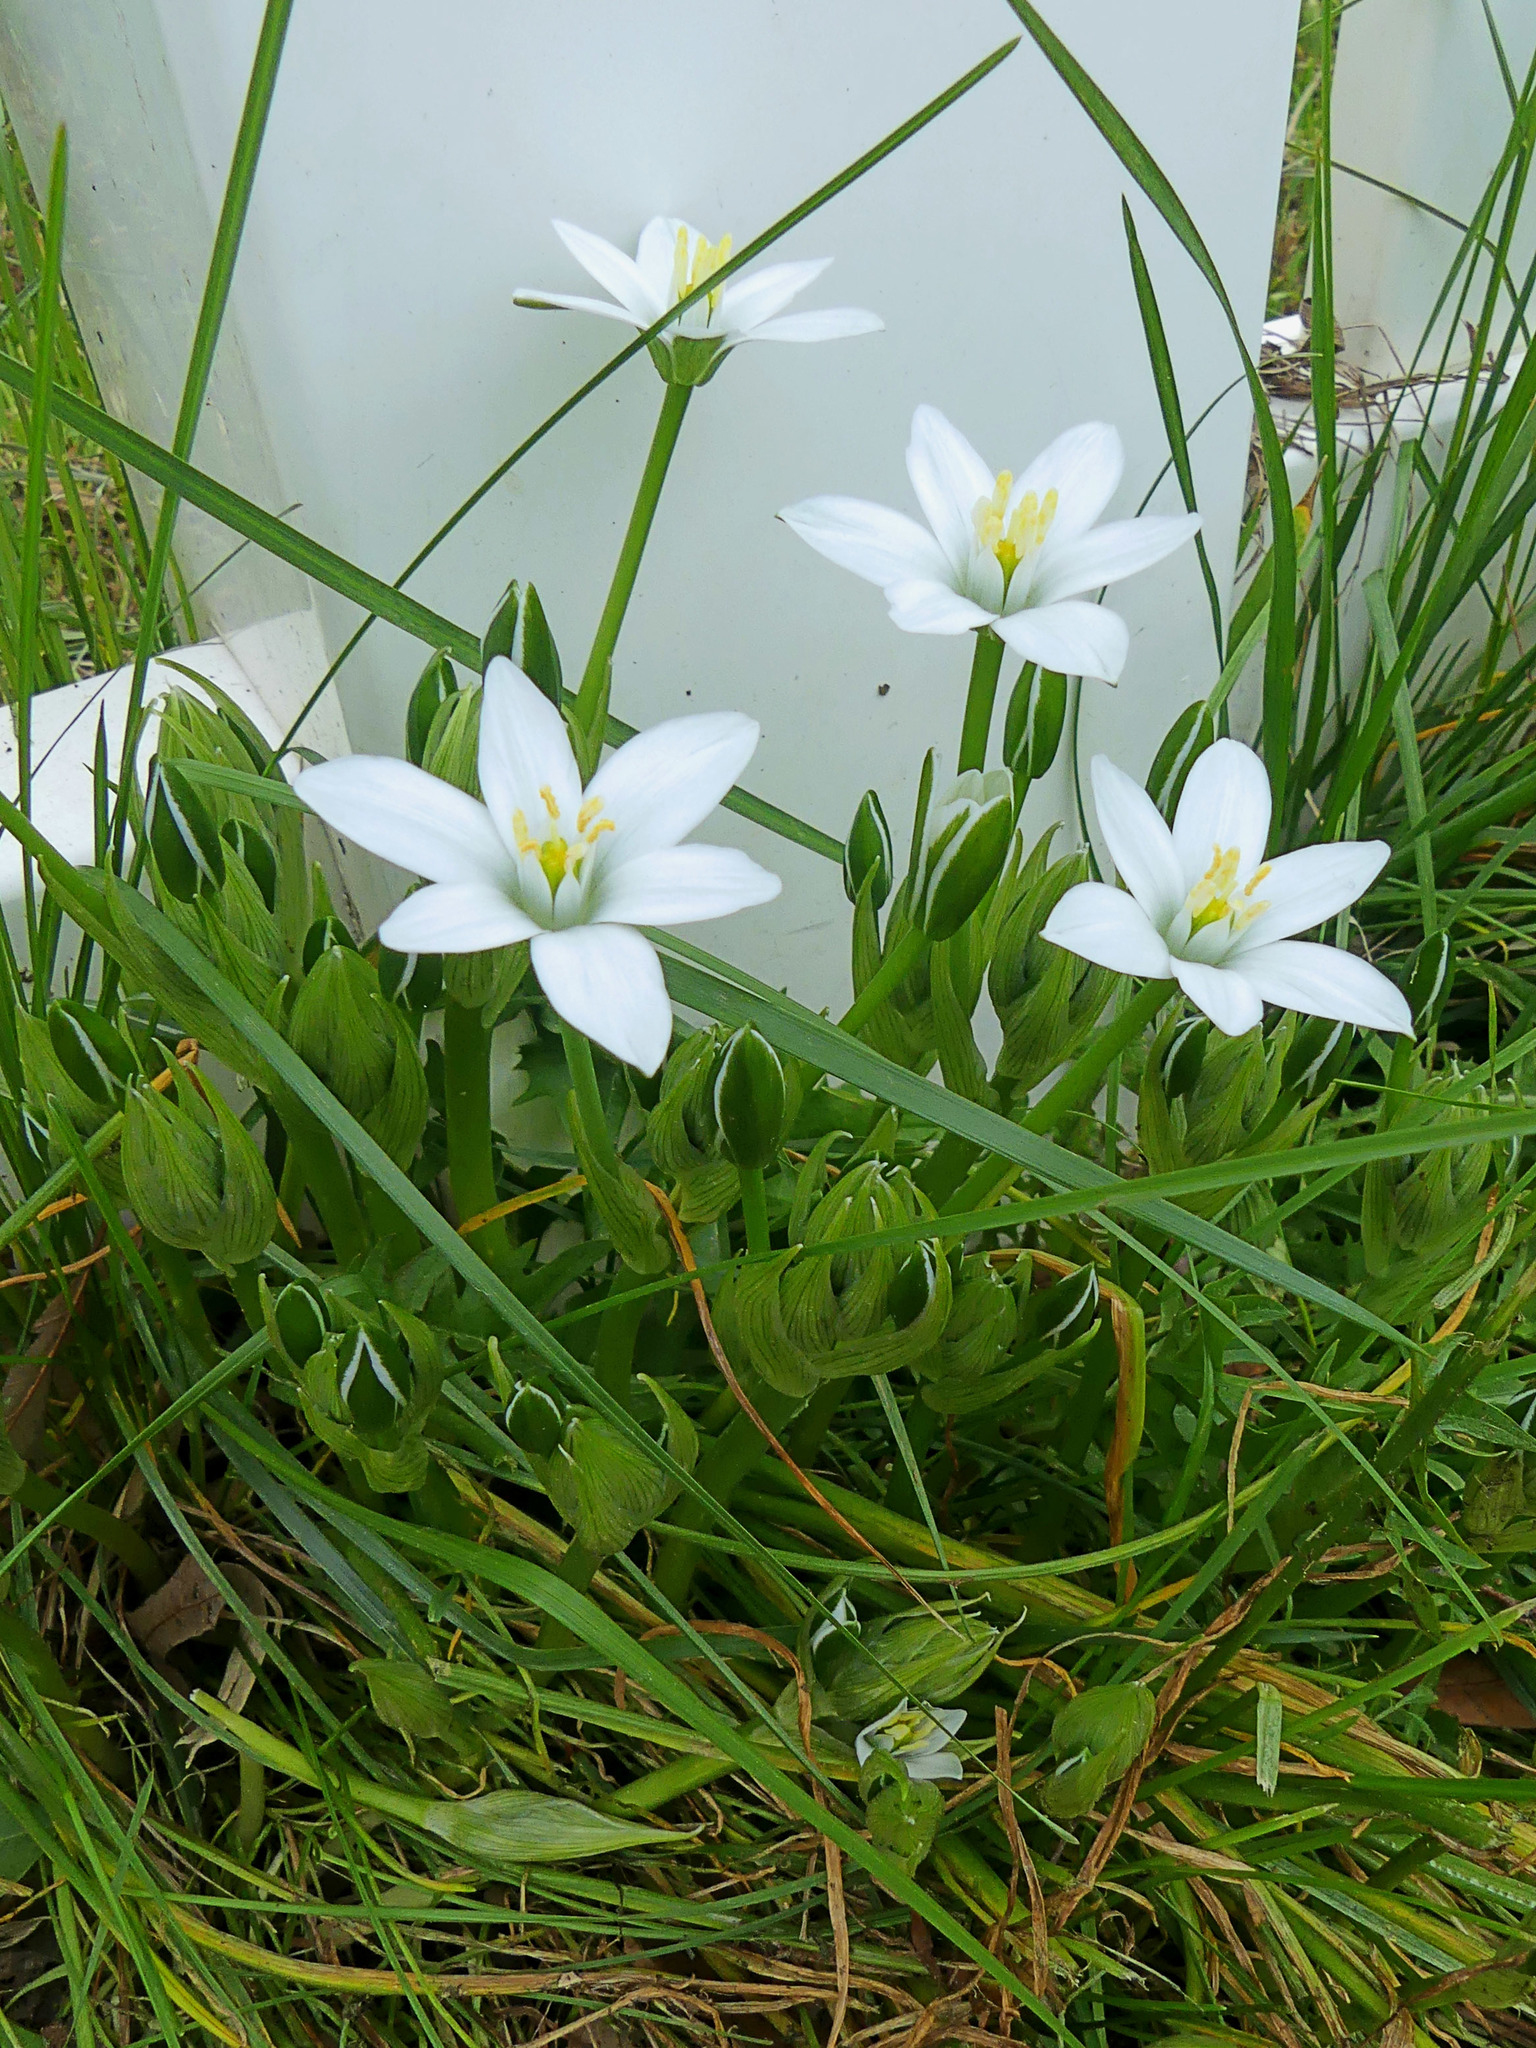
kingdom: Plantae
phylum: Tracheophyta
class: Liliopsida
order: Asparagales
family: Asparagaceae
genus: Ornithogalum
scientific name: Ornithogalum umbellatum
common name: Garden star-of-bethlehem
